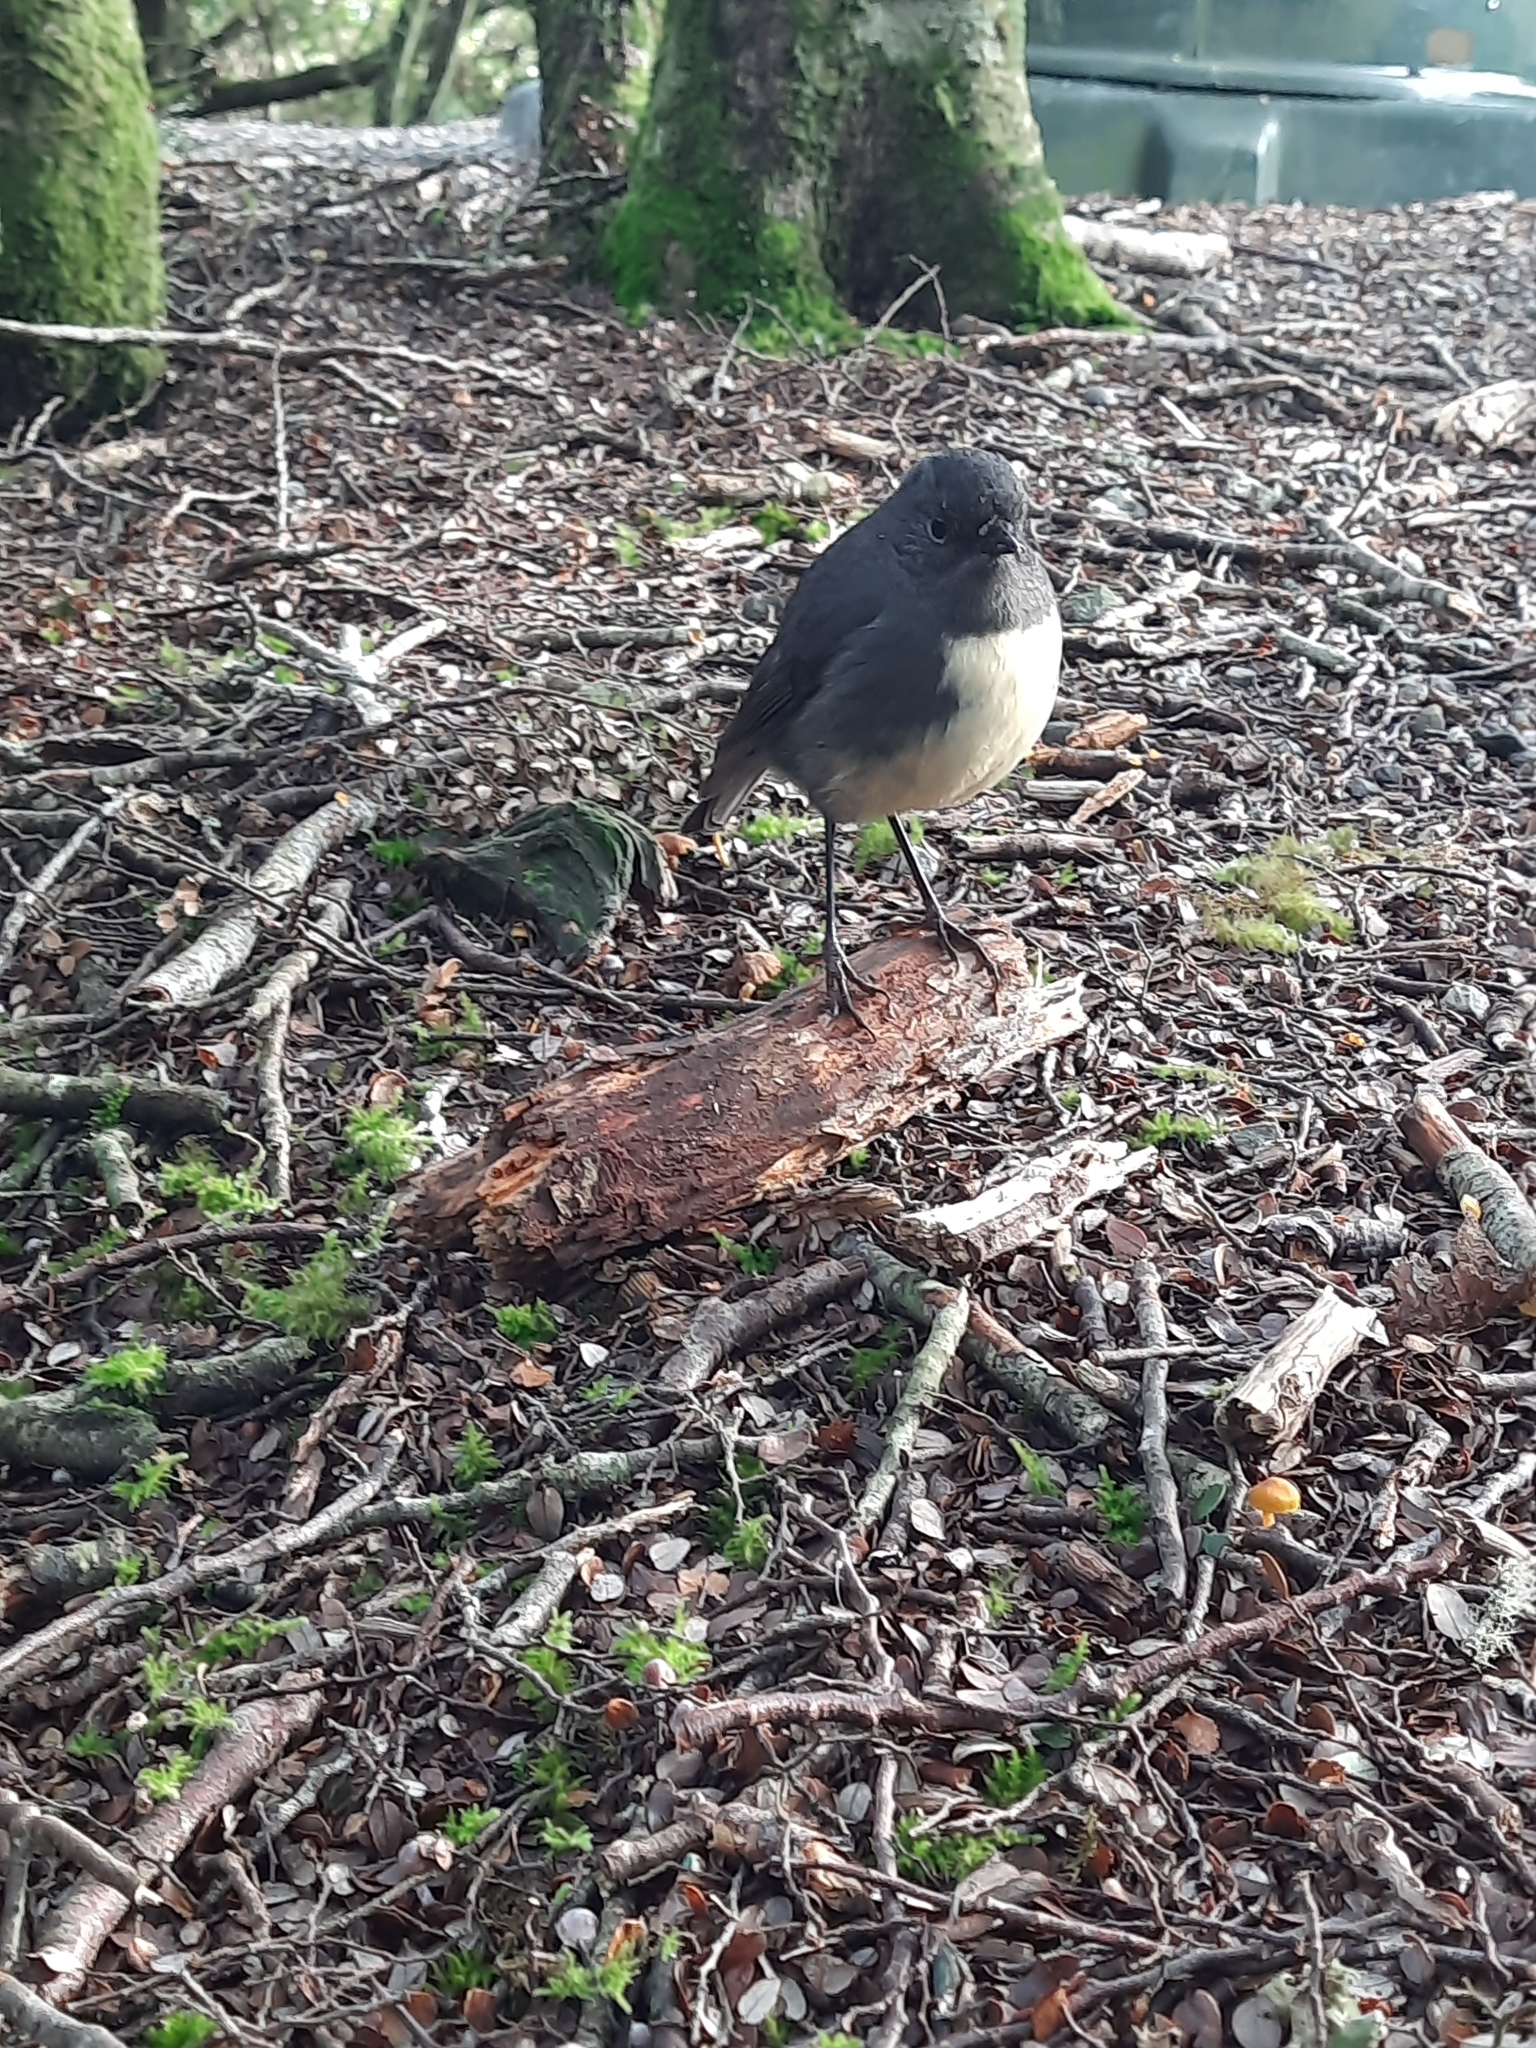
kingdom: Animalia
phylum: Chordata
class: Aves
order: Passeriformes
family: Petroicidae
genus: Petroica
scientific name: Petroica australis
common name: New zealand robin
